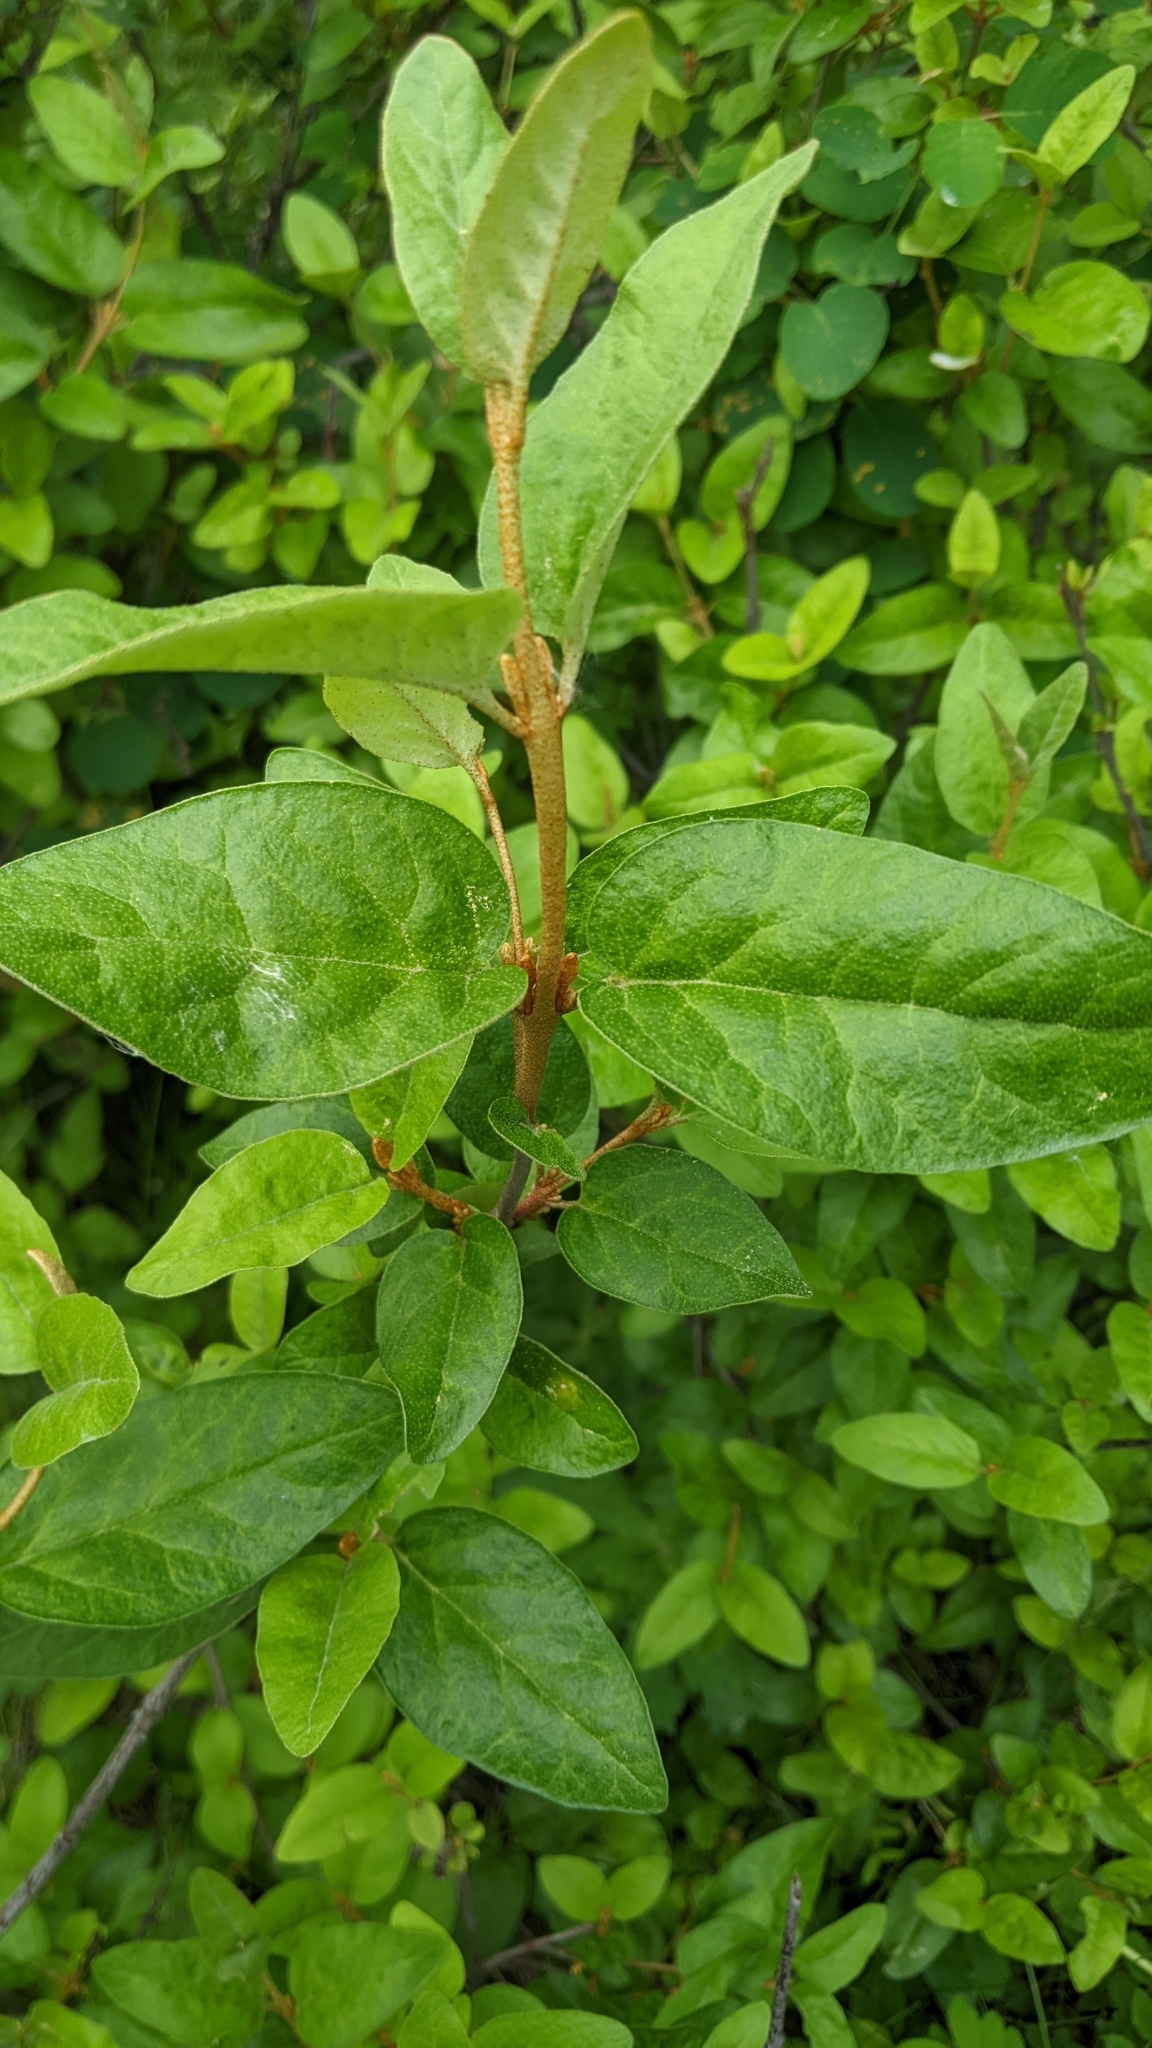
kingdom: Plantae
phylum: Tracheophyta
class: Magnoliopsida
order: Rosales
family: Elaeagnaceae
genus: Shepherdia
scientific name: Shepherdia canadensis
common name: Soapberry
